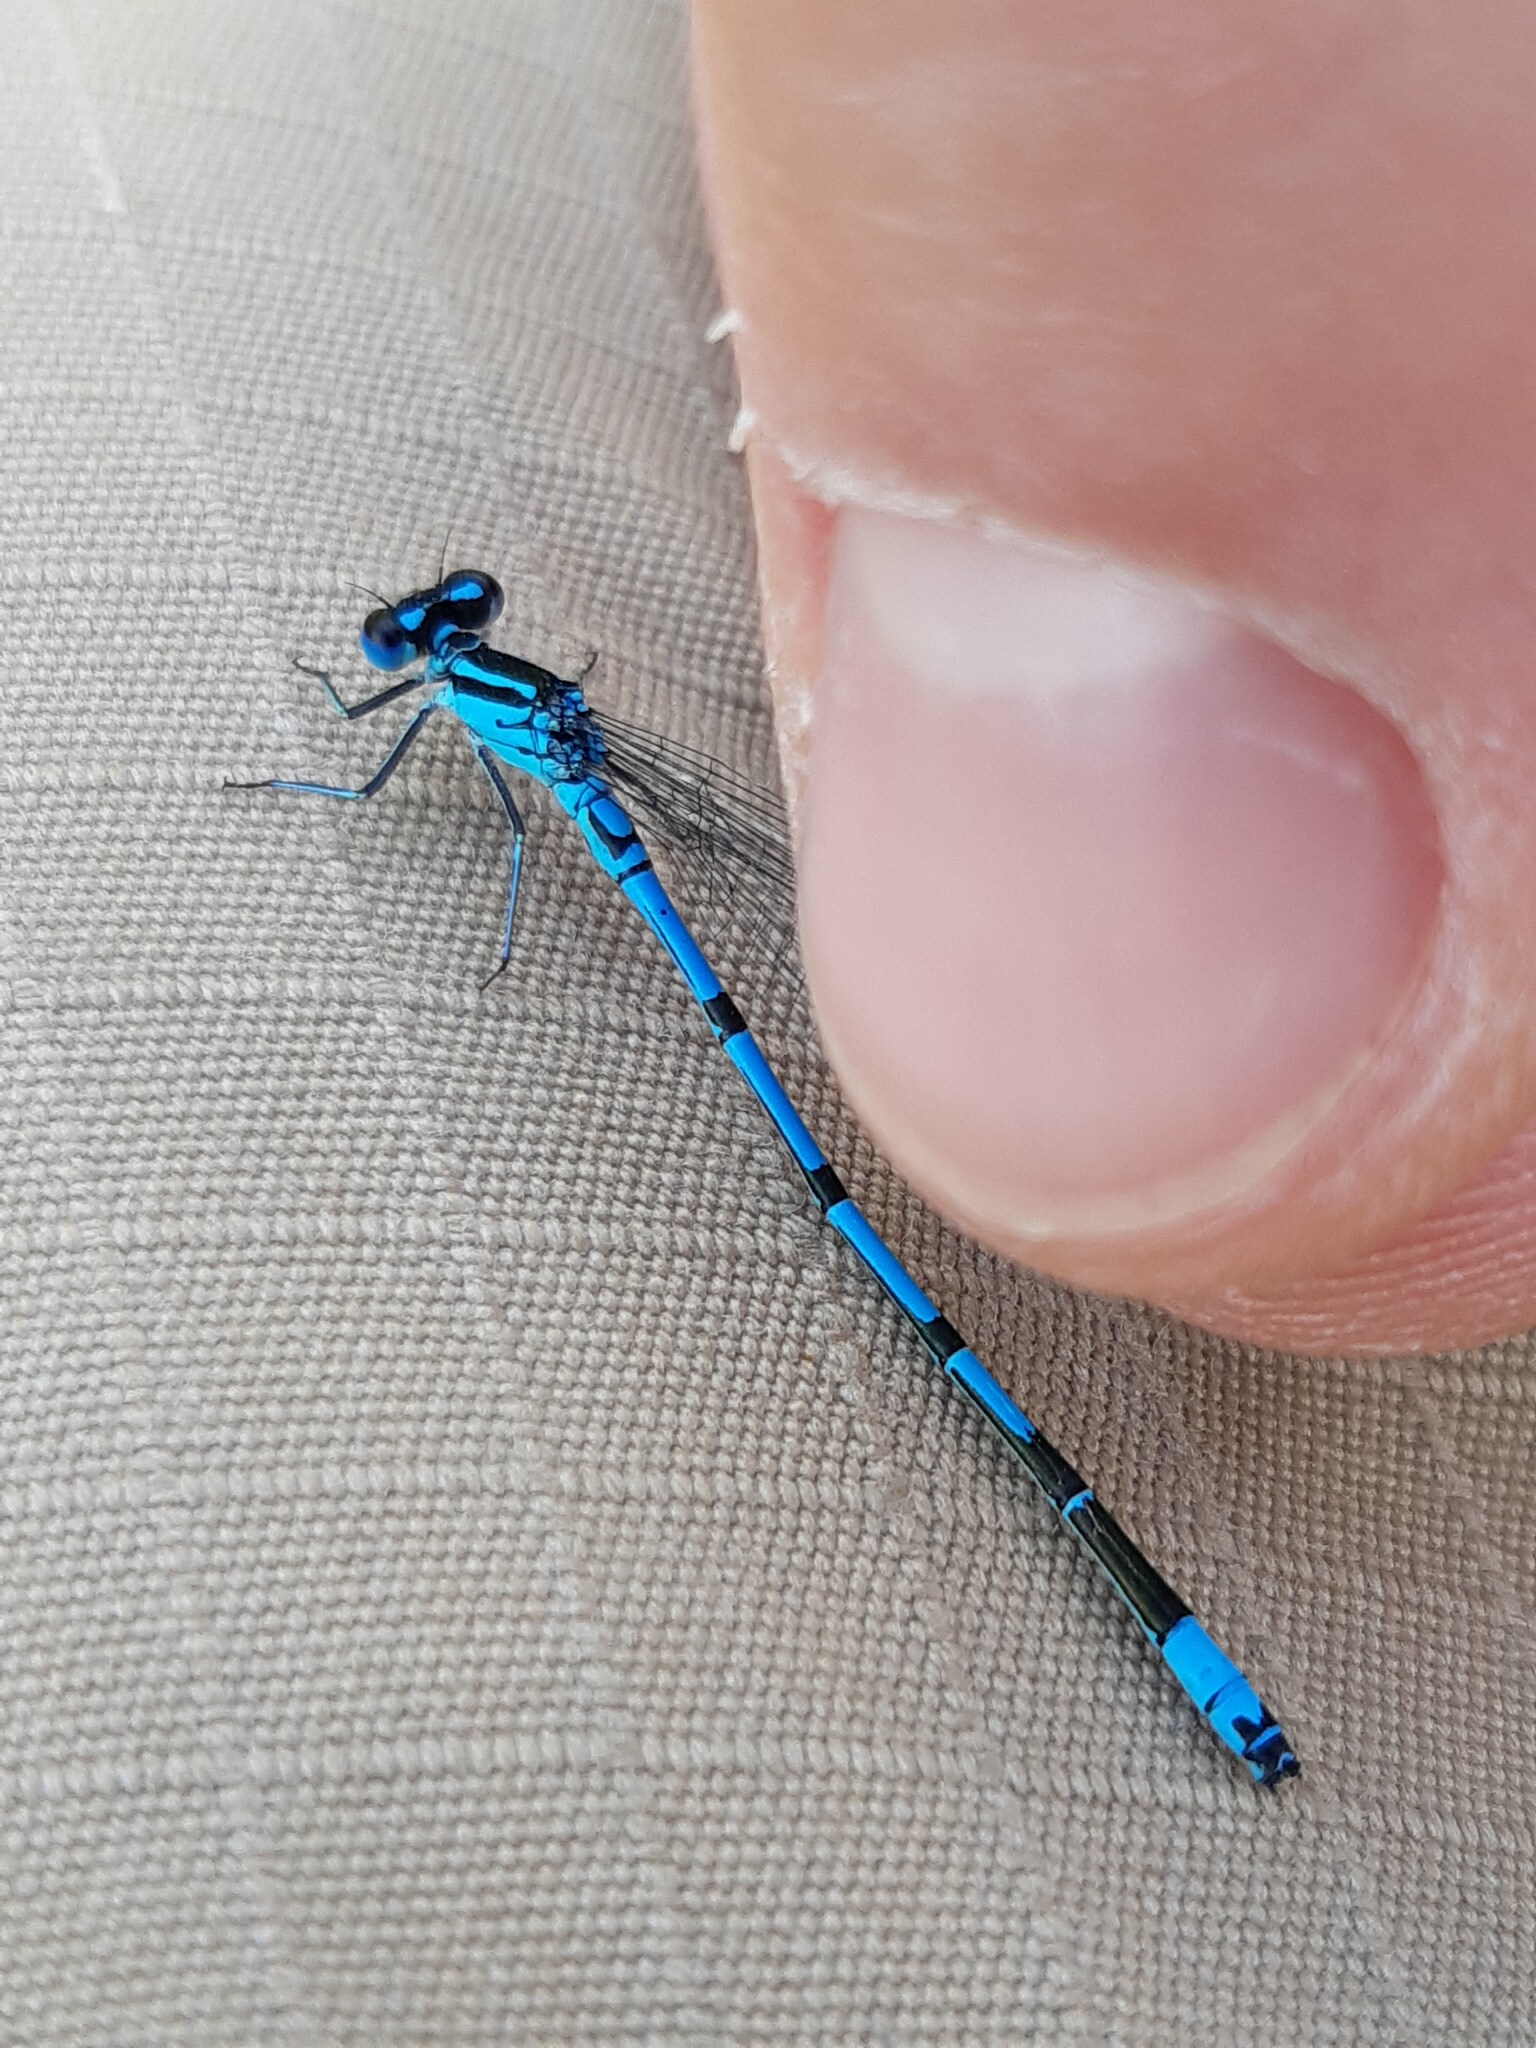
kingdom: Animalia
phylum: Arthropoda
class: Insecta
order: Odonata
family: Coenagrionidae
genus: Coenagrion
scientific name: Coenagrion puella
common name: Azure damselfly
